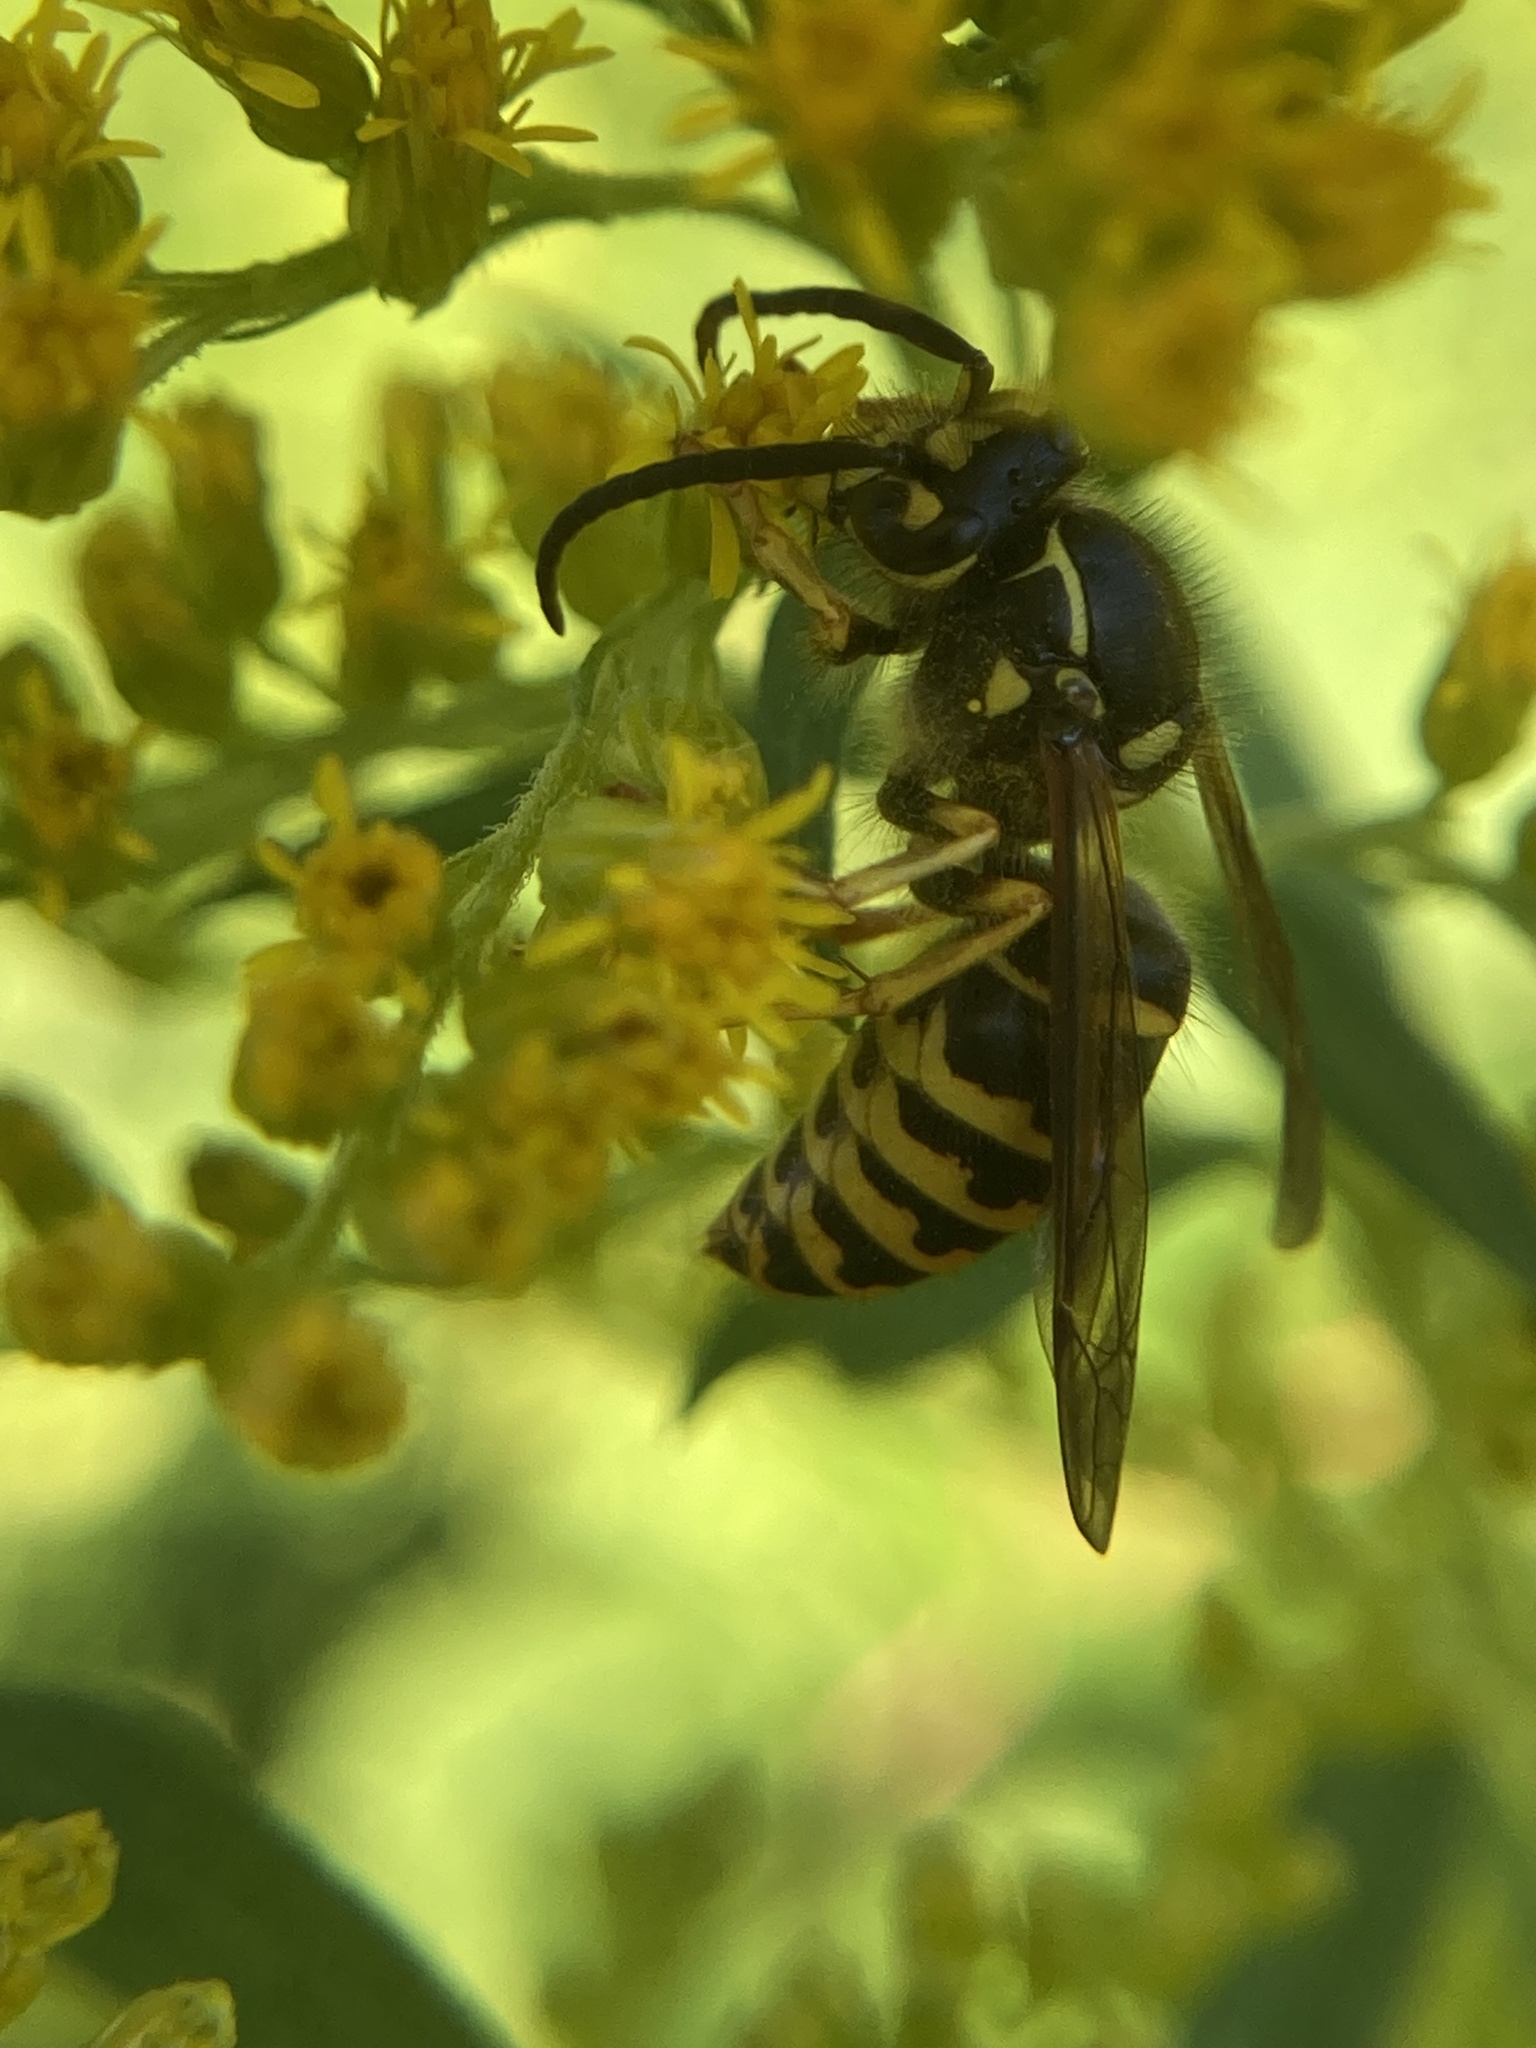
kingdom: Animalia
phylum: Arthropoda
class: Insecta
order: Hymenoptera
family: Vespidae
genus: Dolichovespula
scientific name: Dolichovespula arenaria
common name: Aerial yellowjacket
